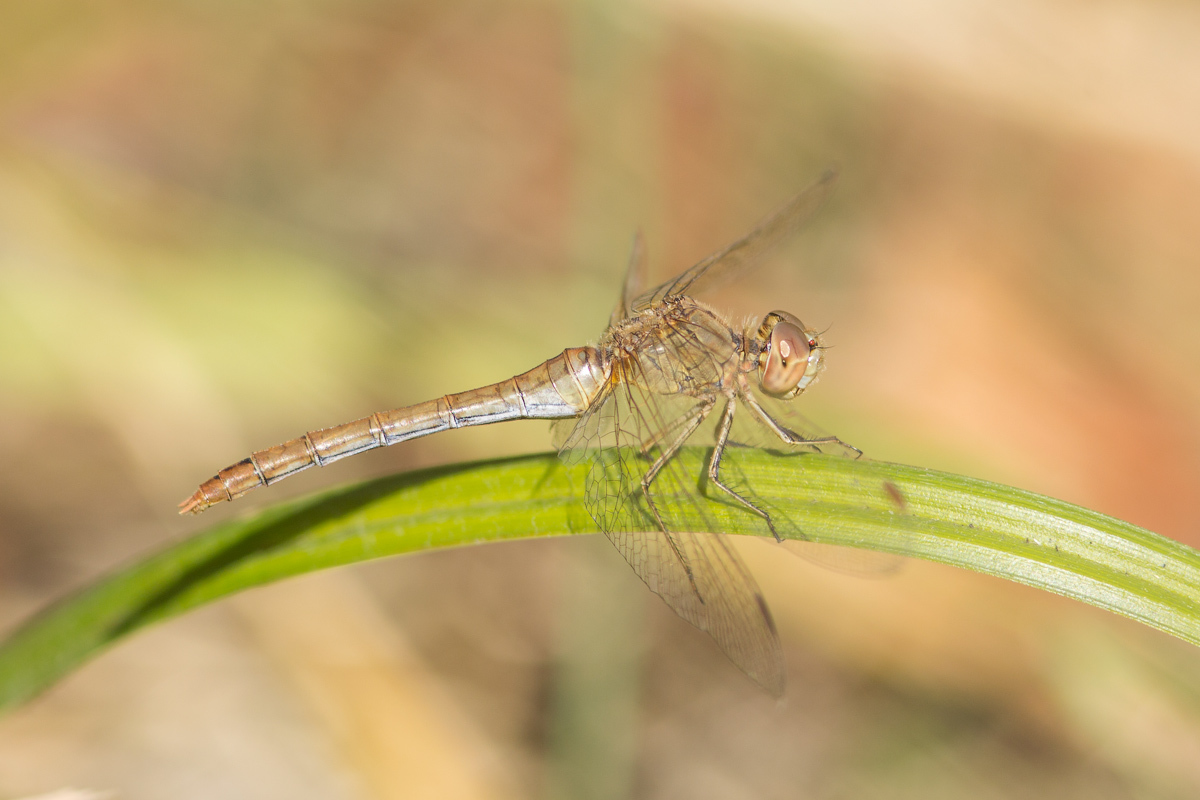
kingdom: Animalia
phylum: Arthropoda
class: Insecta
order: Odonata
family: Libellulidae
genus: Sympetrum
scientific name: Sympetrum meridionale
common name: Southern darter
